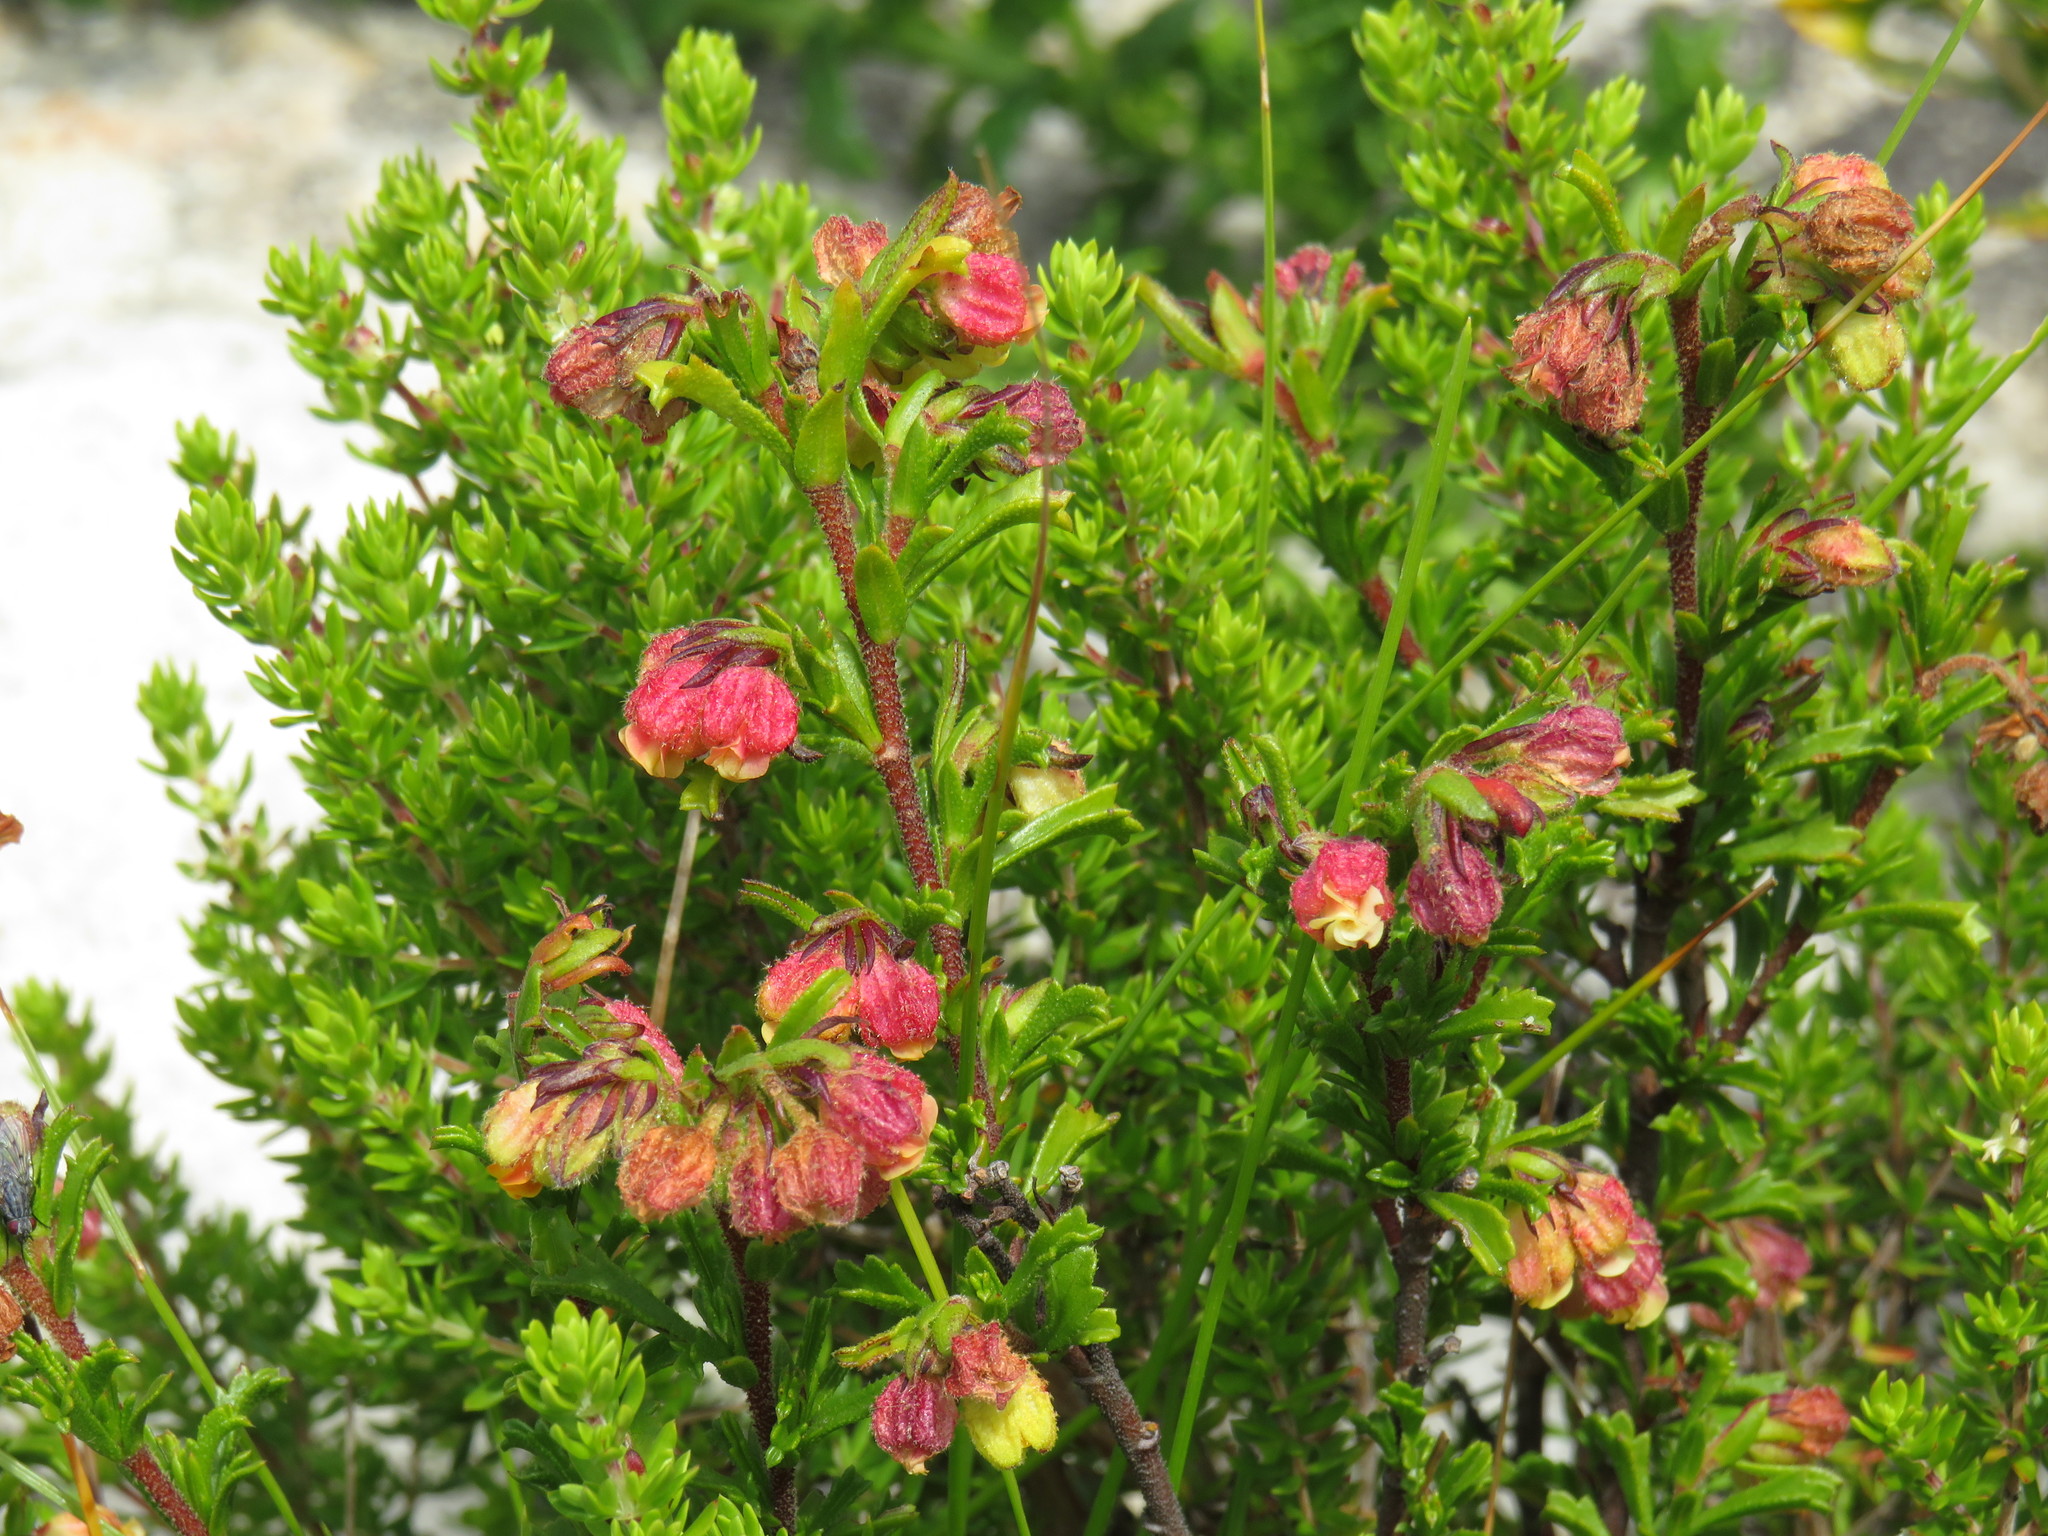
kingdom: Plantae
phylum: Tracheophyta
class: Magnoliopsida
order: Malvales
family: Malvaceae
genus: Hermannia
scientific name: Hermannia rudis
